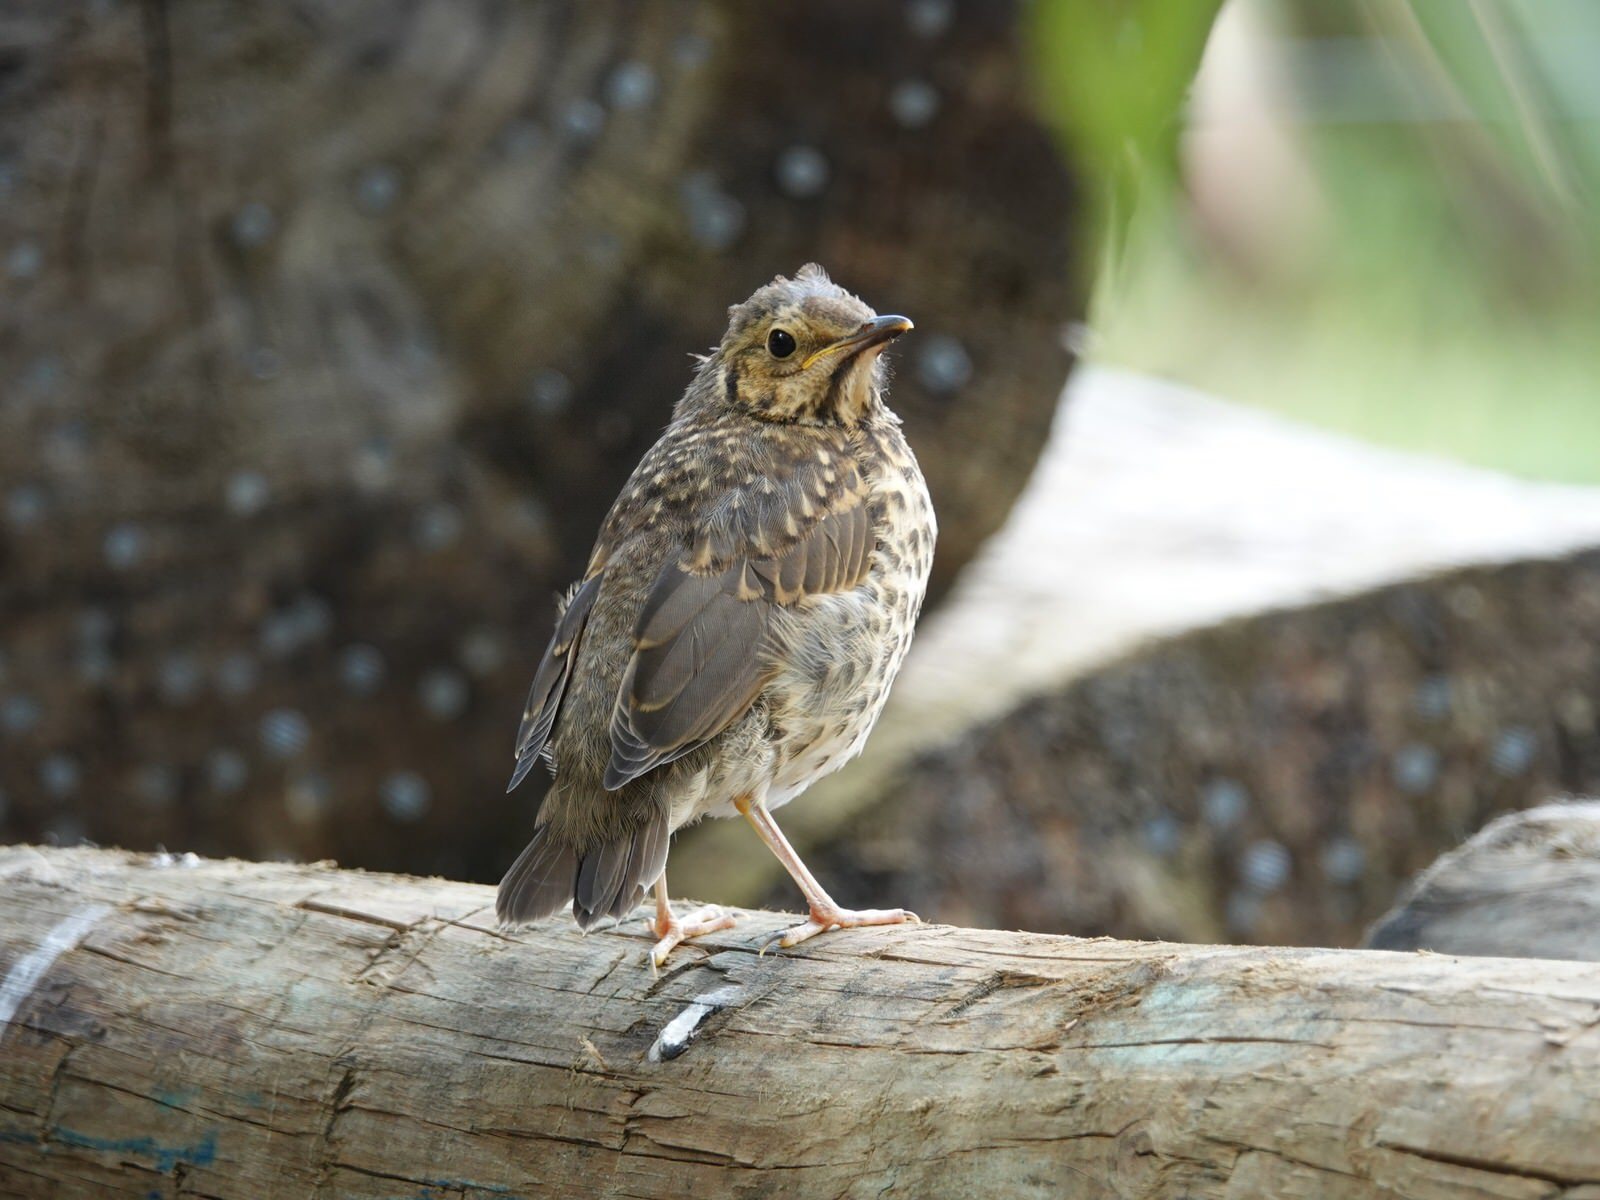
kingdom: Animalia
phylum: Chordata
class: Aves
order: Passeriformes
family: Turdidae
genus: Turdus
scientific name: Turdus philomelos
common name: Song thrush
